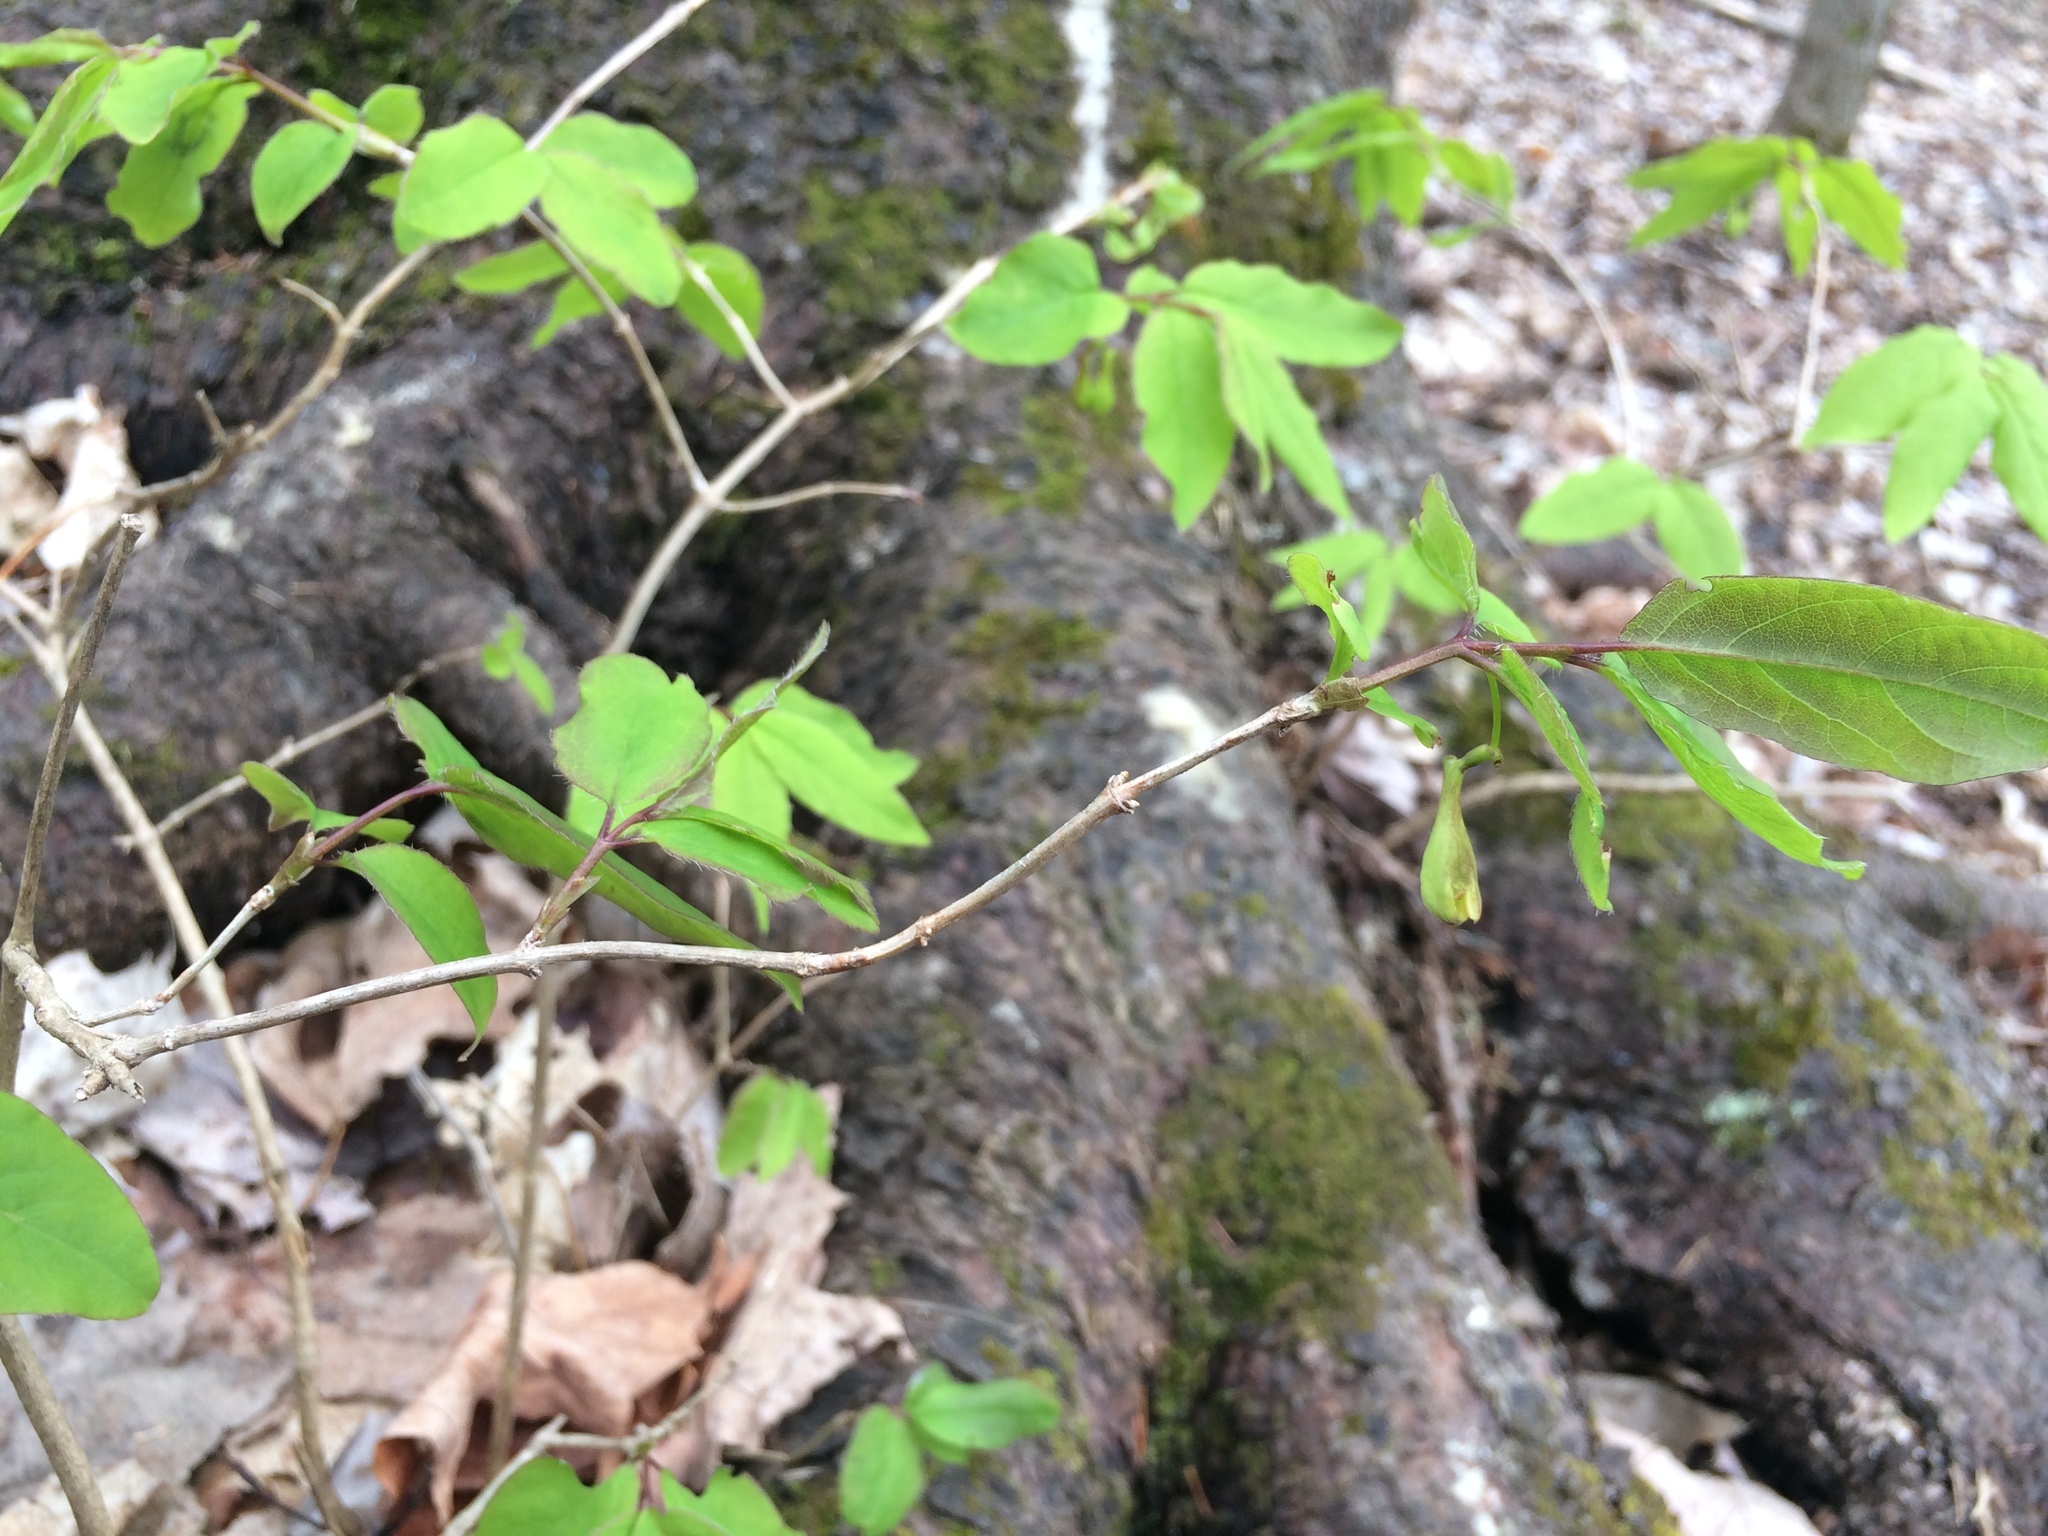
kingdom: Plantae
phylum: Tracheophyta
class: Magnoliopsida
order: Dipsacales
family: Caprifoliaceae
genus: Lonicera
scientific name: Lonicera canadensis
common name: American fly-honeysuckle
